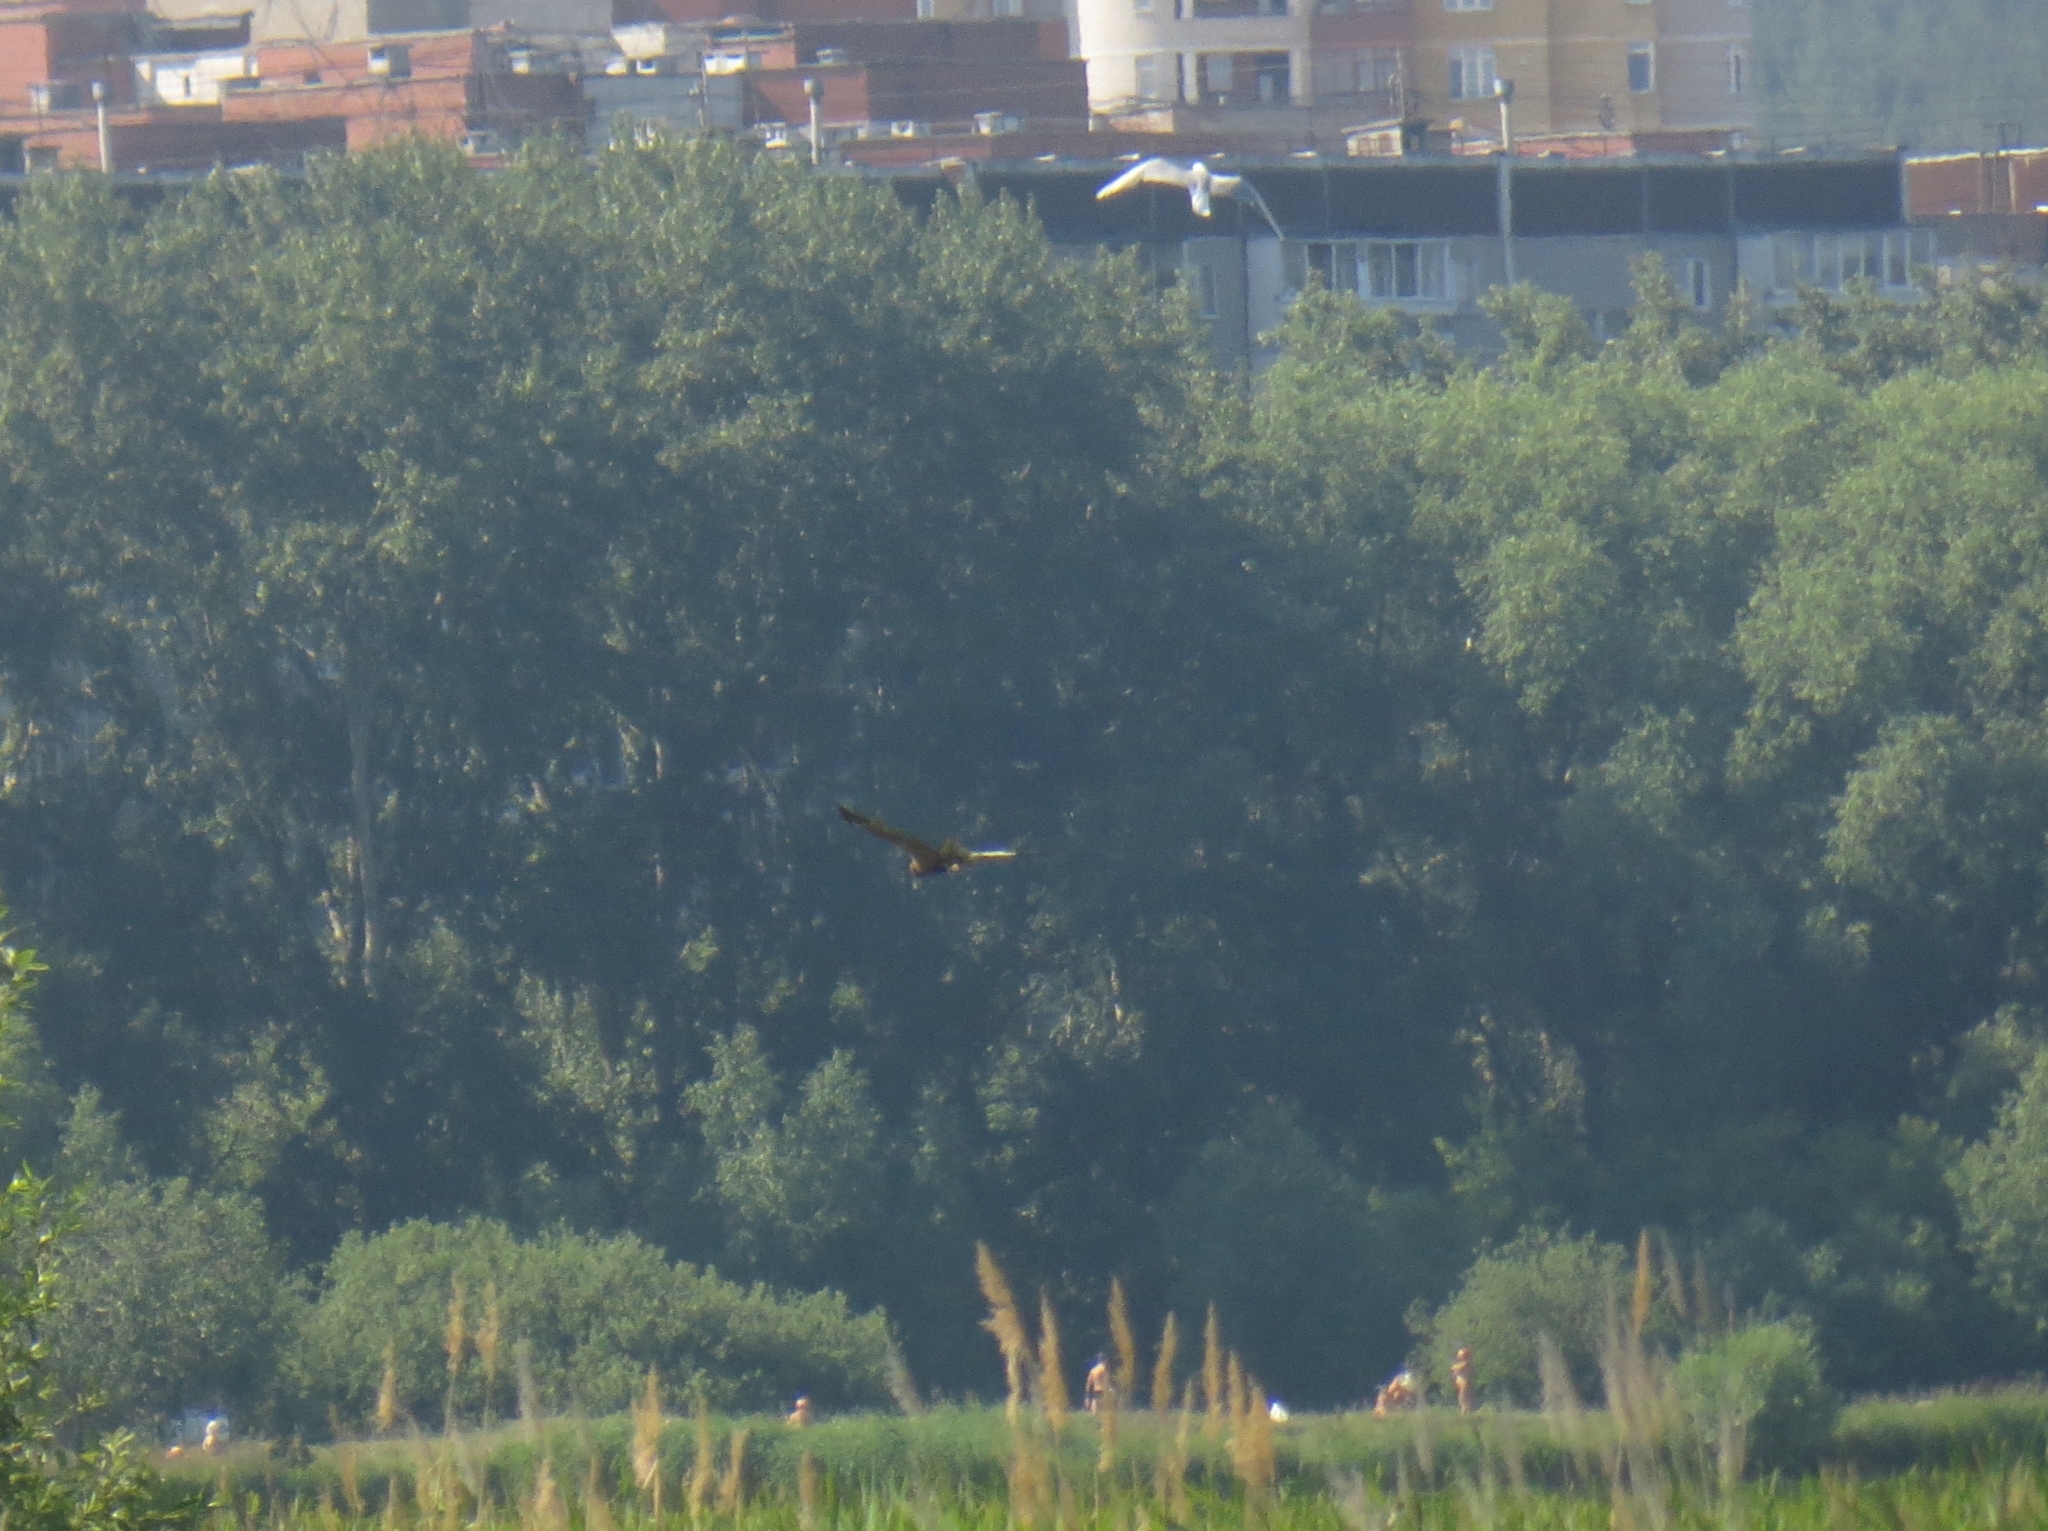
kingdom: Animalia
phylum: Chordata
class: Aves
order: Accipitriformes
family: Accipitridae
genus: Circus
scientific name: Circus aeruginosus
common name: Western marsh harrier
